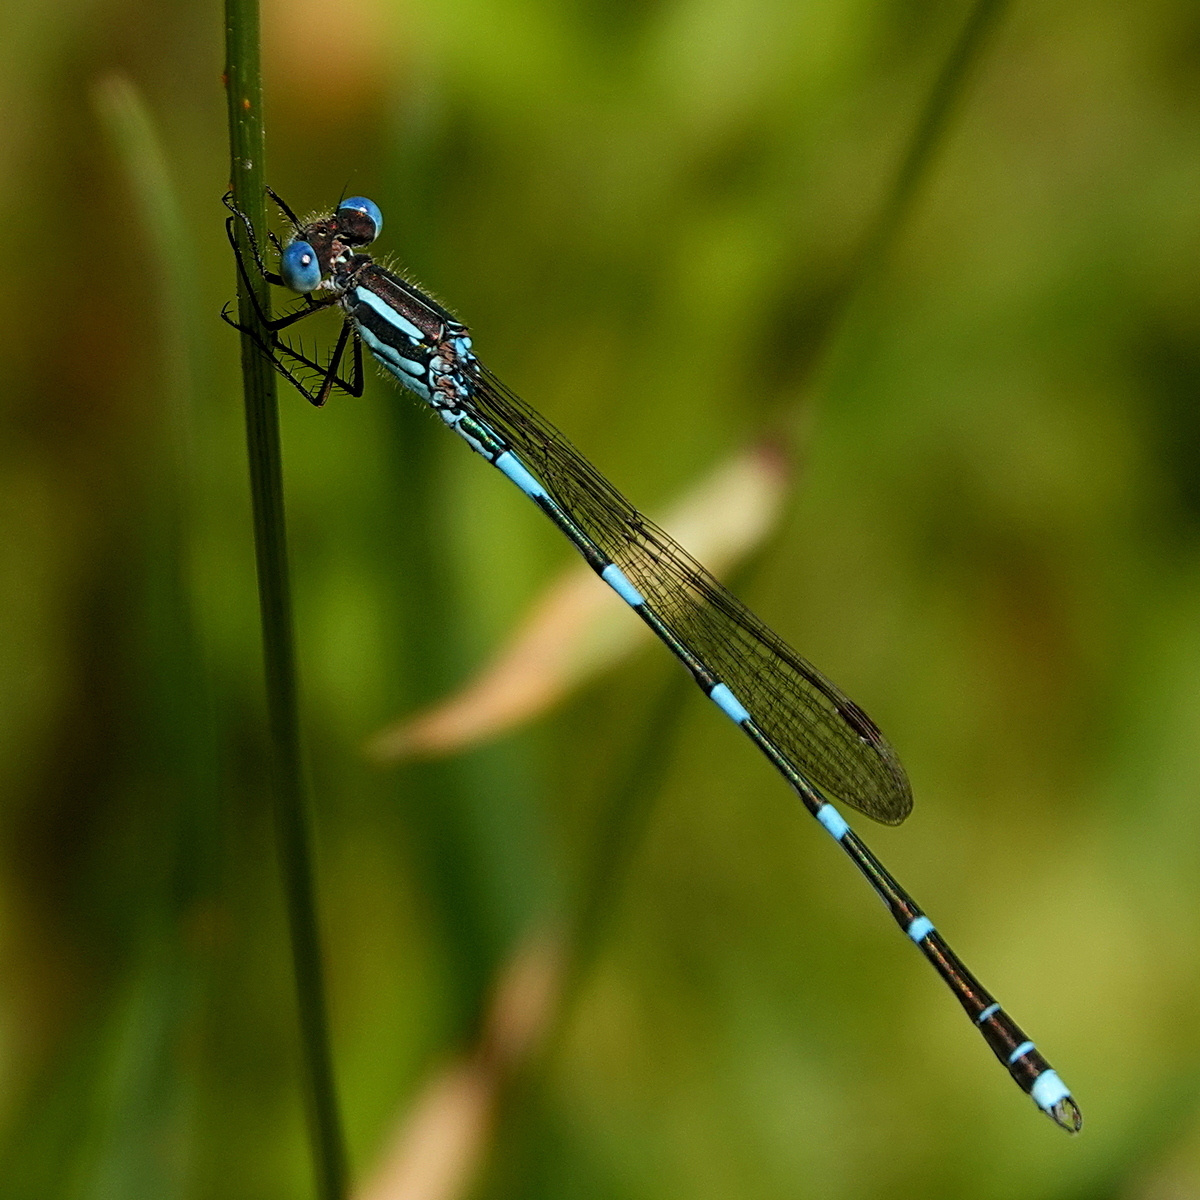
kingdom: Animalia
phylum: Arthropoda
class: Insecta
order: Odonata
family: Lestidae
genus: Austrolestes
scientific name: Austrolestes leda
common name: Wandering ringtail
